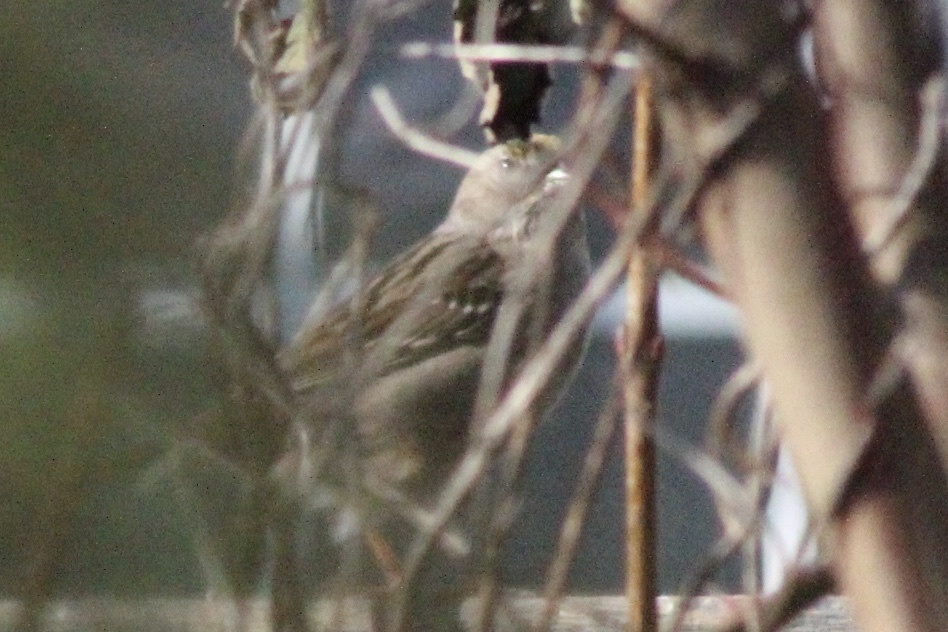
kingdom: Animalia
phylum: Chordata
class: Aves
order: Passeriformes
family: Passerellidae
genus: Zonotrichia
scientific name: Zonotrichia atricapilla
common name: Golden-crowned sparrow
